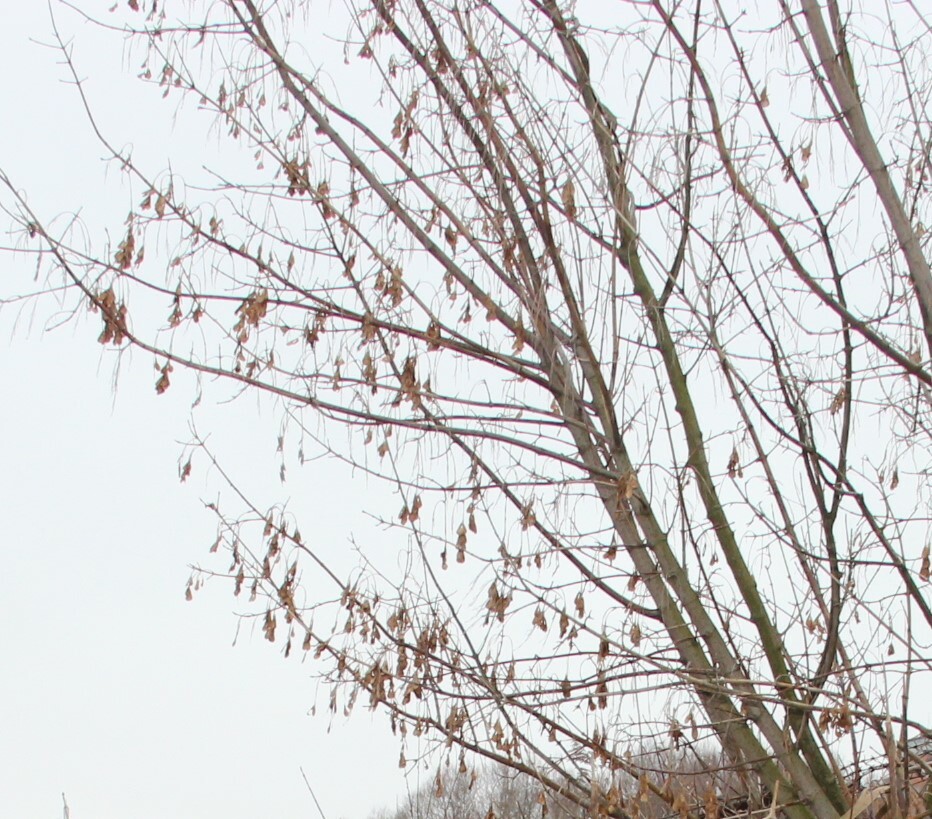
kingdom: Plantae
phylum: Tracheophyta
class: Magnoliopsida
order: Sapindales
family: Sapindaceae
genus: Acer
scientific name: Acer negundo
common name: Ashleaf maple
